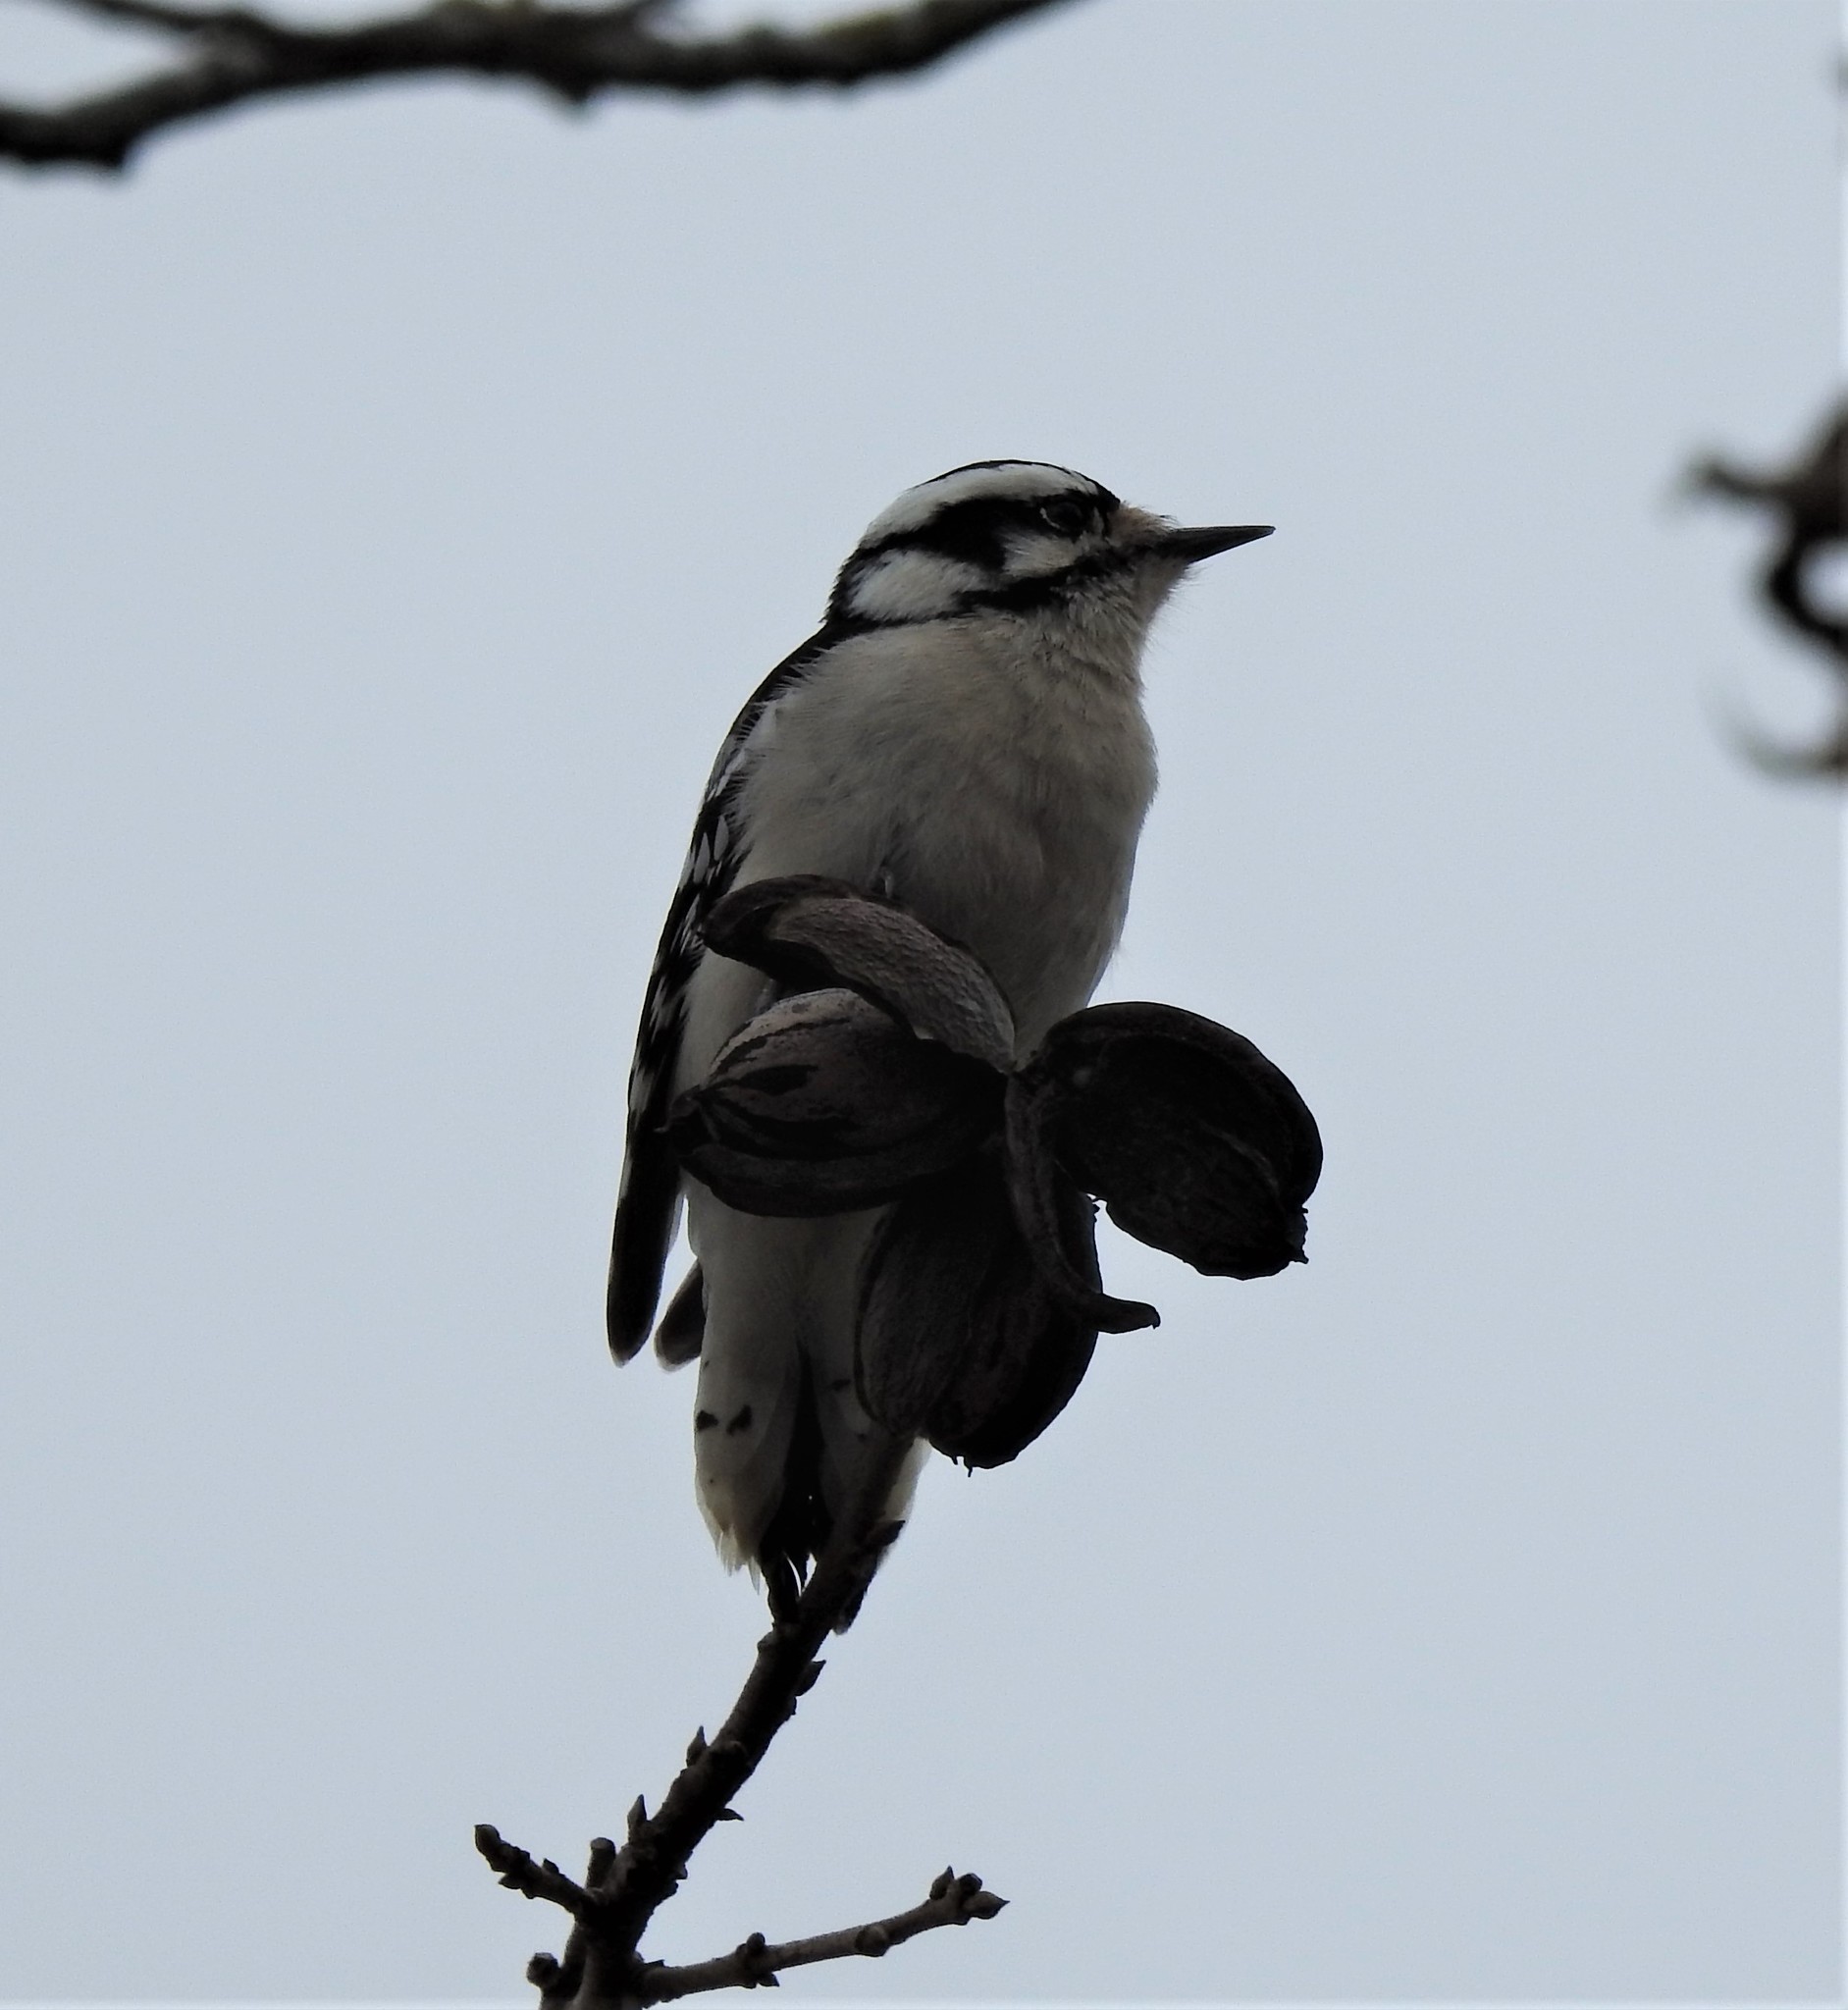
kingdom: Animalia
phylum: Chordata
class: Aves
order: Piciformes
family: Picidae
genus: Dryobates
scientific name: Dryobates pubescens
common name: Downy woodpecker
